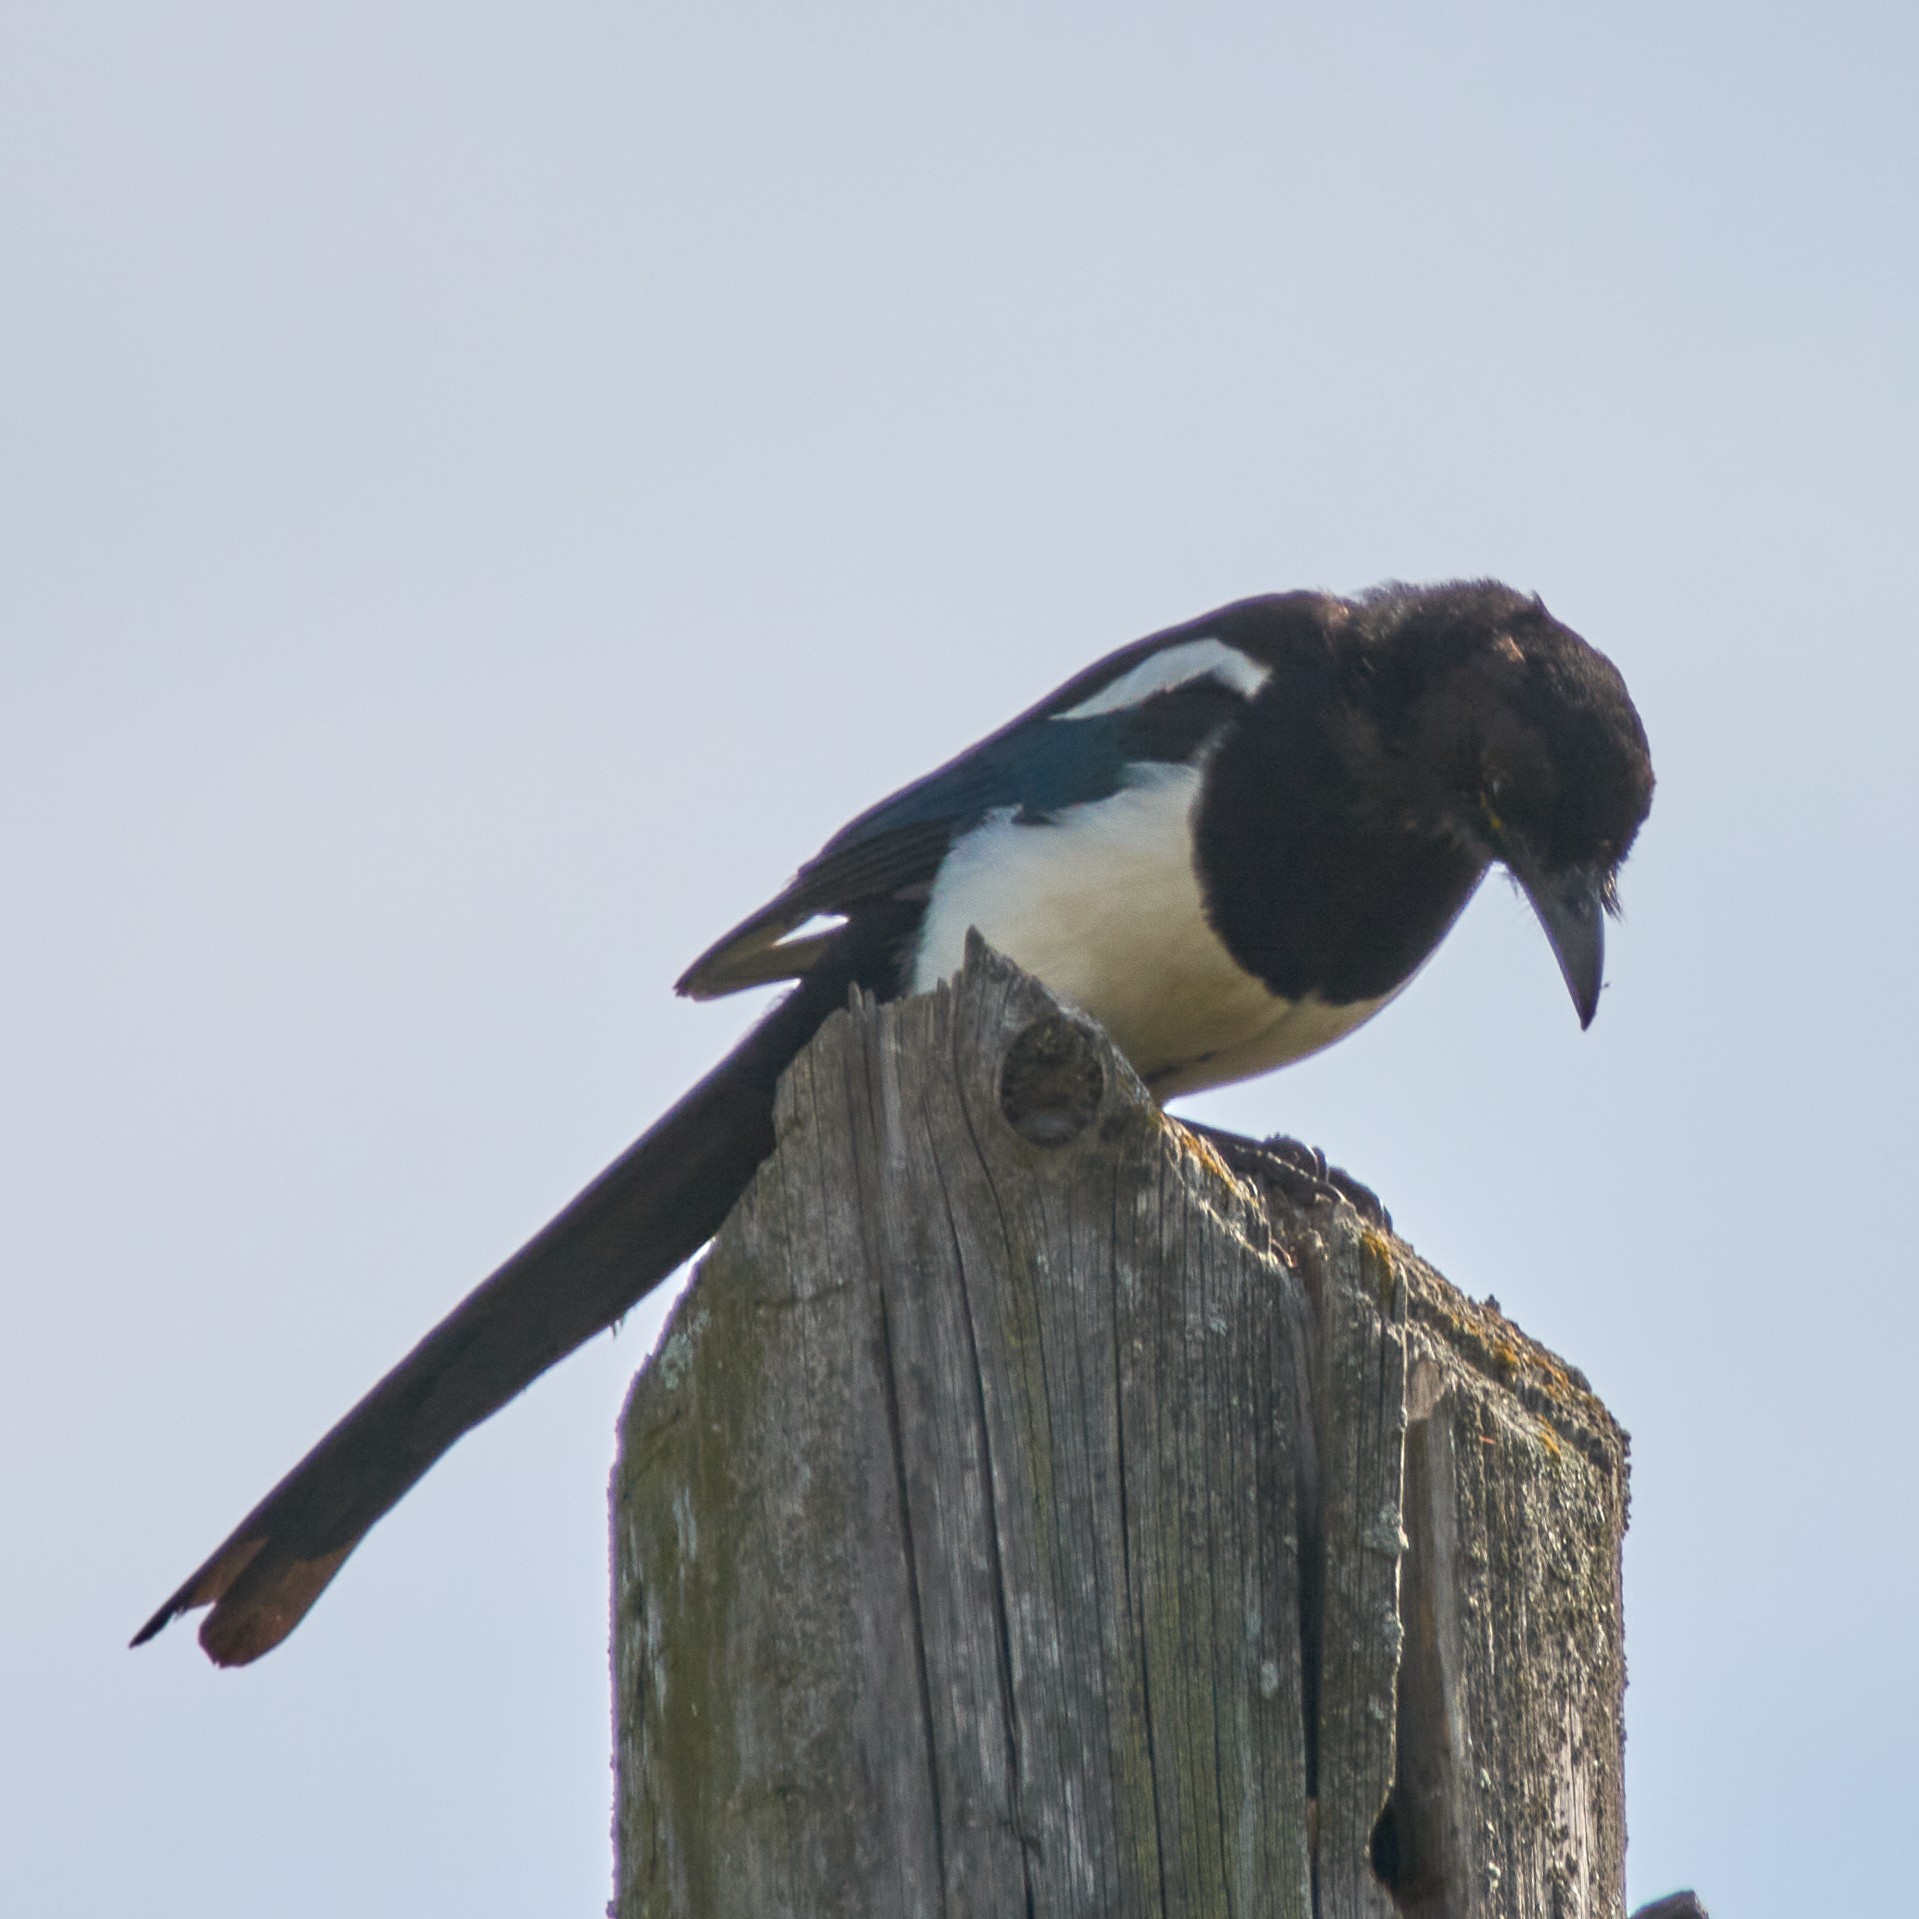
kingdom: Animalia
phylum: Chordata
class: Aves
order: Passeriformes
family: Corvidae
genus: Pica
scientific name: Pica pica
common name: Eurasian magpie
